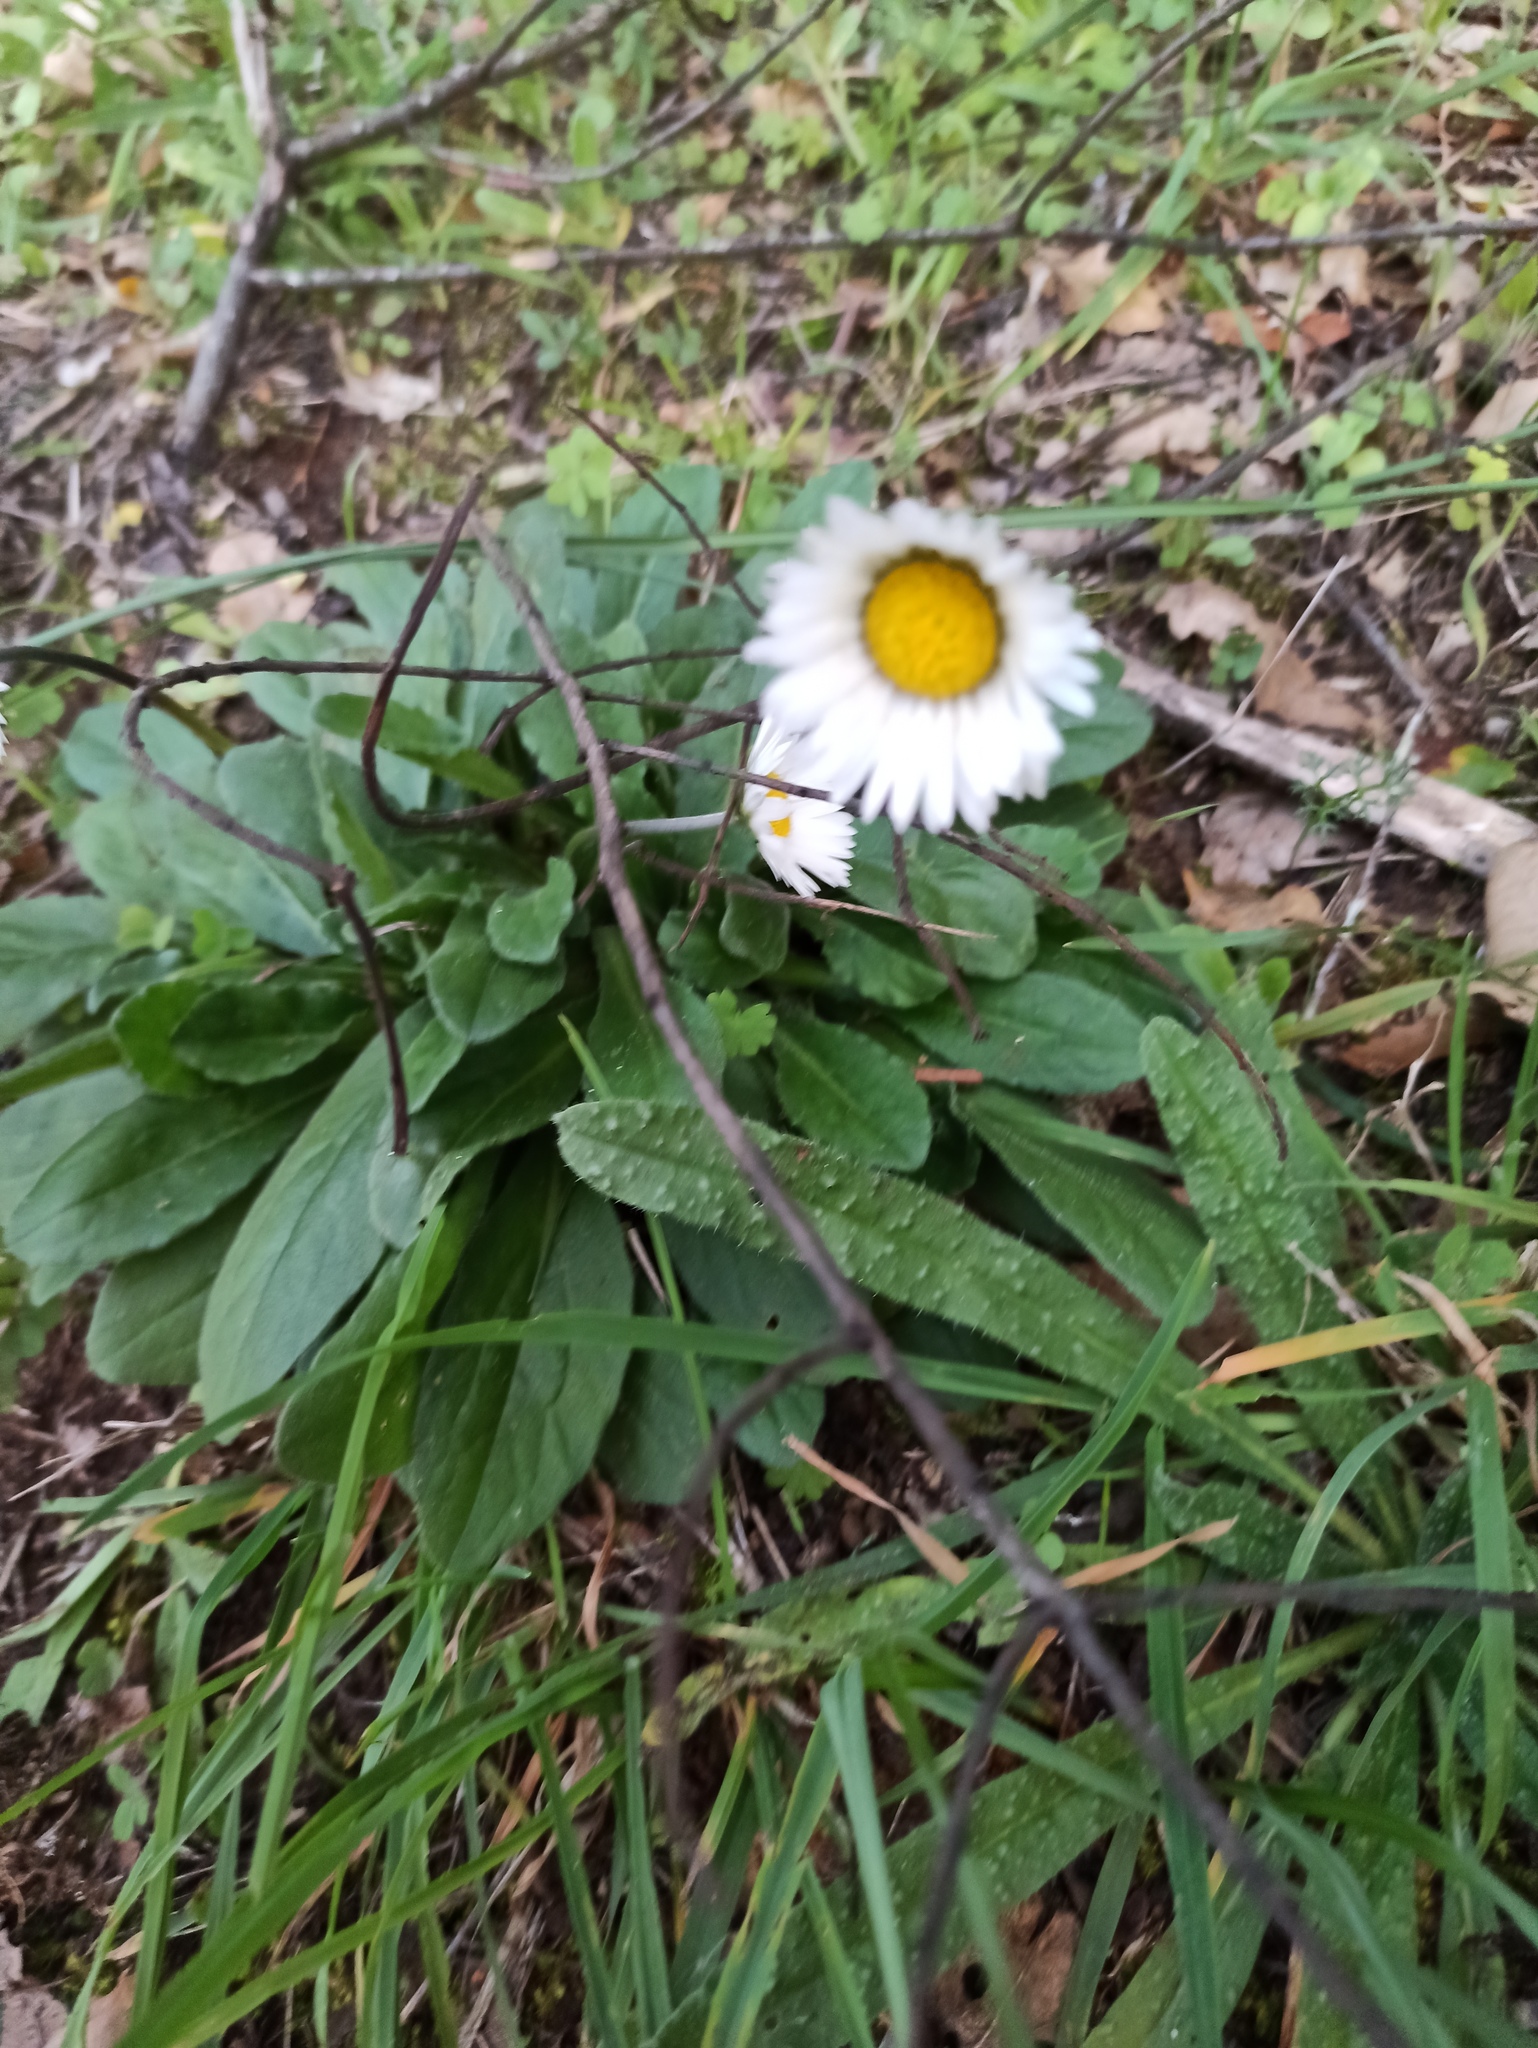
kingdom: Plantae
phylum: Tracheophyta
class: Magnoliopsida
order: Asterales
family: Asteraceae
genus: Bellis
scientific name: Bellis sylvestris
